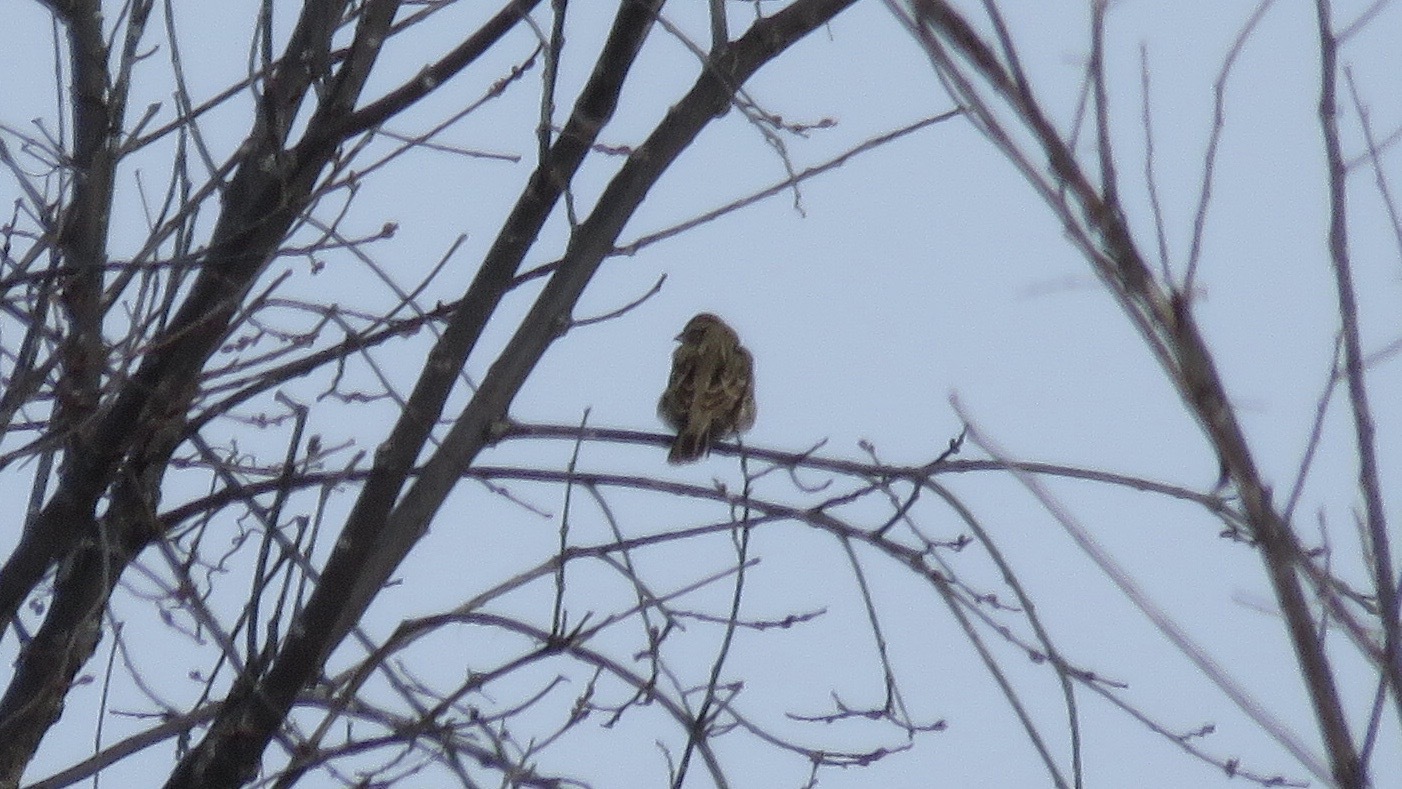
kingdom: Animalia
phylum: Chordata
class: Aves
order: Passeriformes
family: Passerellidae
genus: Chondestes
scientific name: Chondestes grammacus
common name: Lark sparrow
